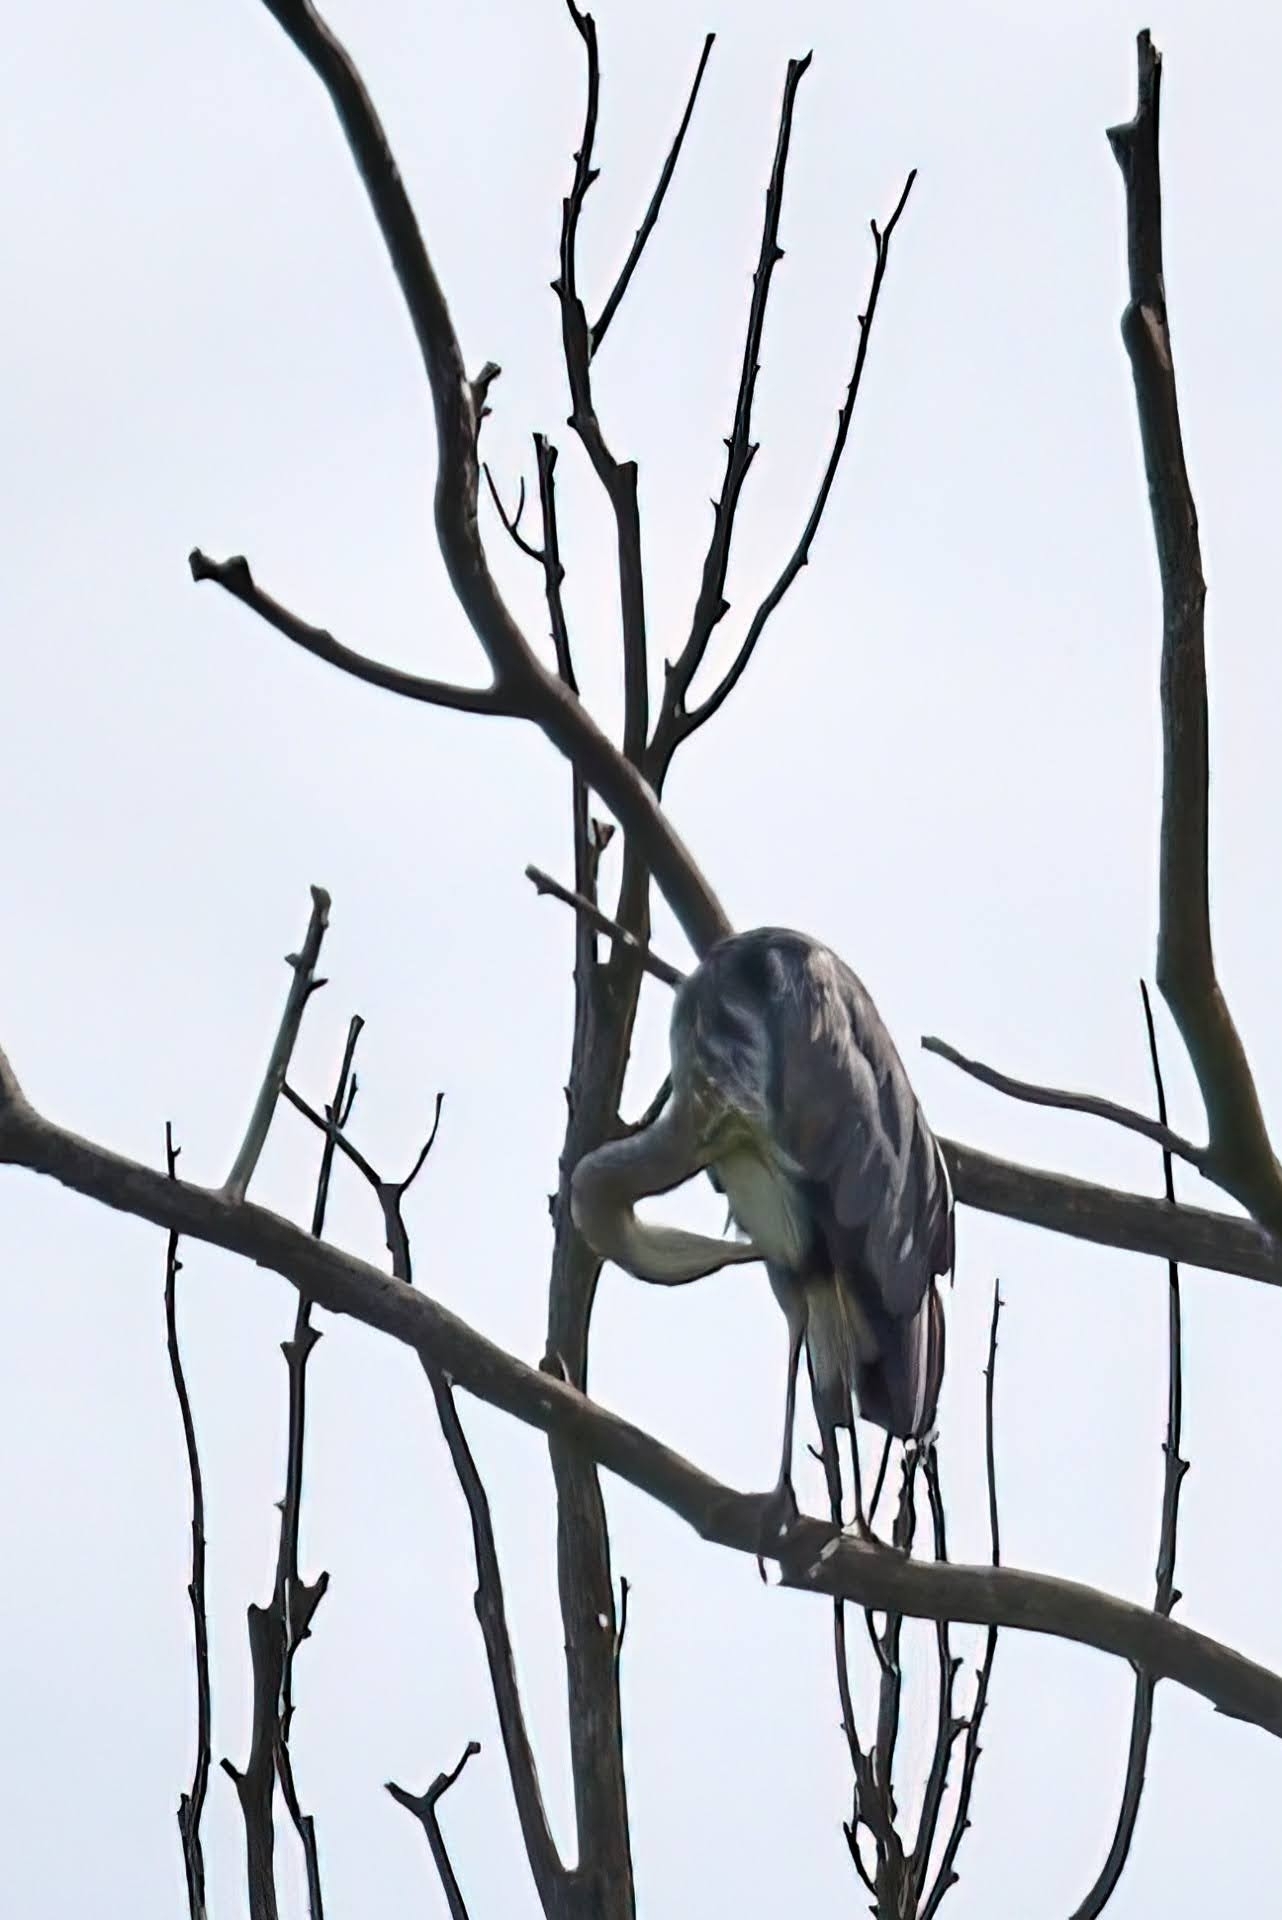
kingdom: Animalia
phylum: Chordata
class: Aves
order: Pelecaniformes
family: Ardeidae
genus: Ardea
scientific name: Ardea cinerea
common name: Grey heron
